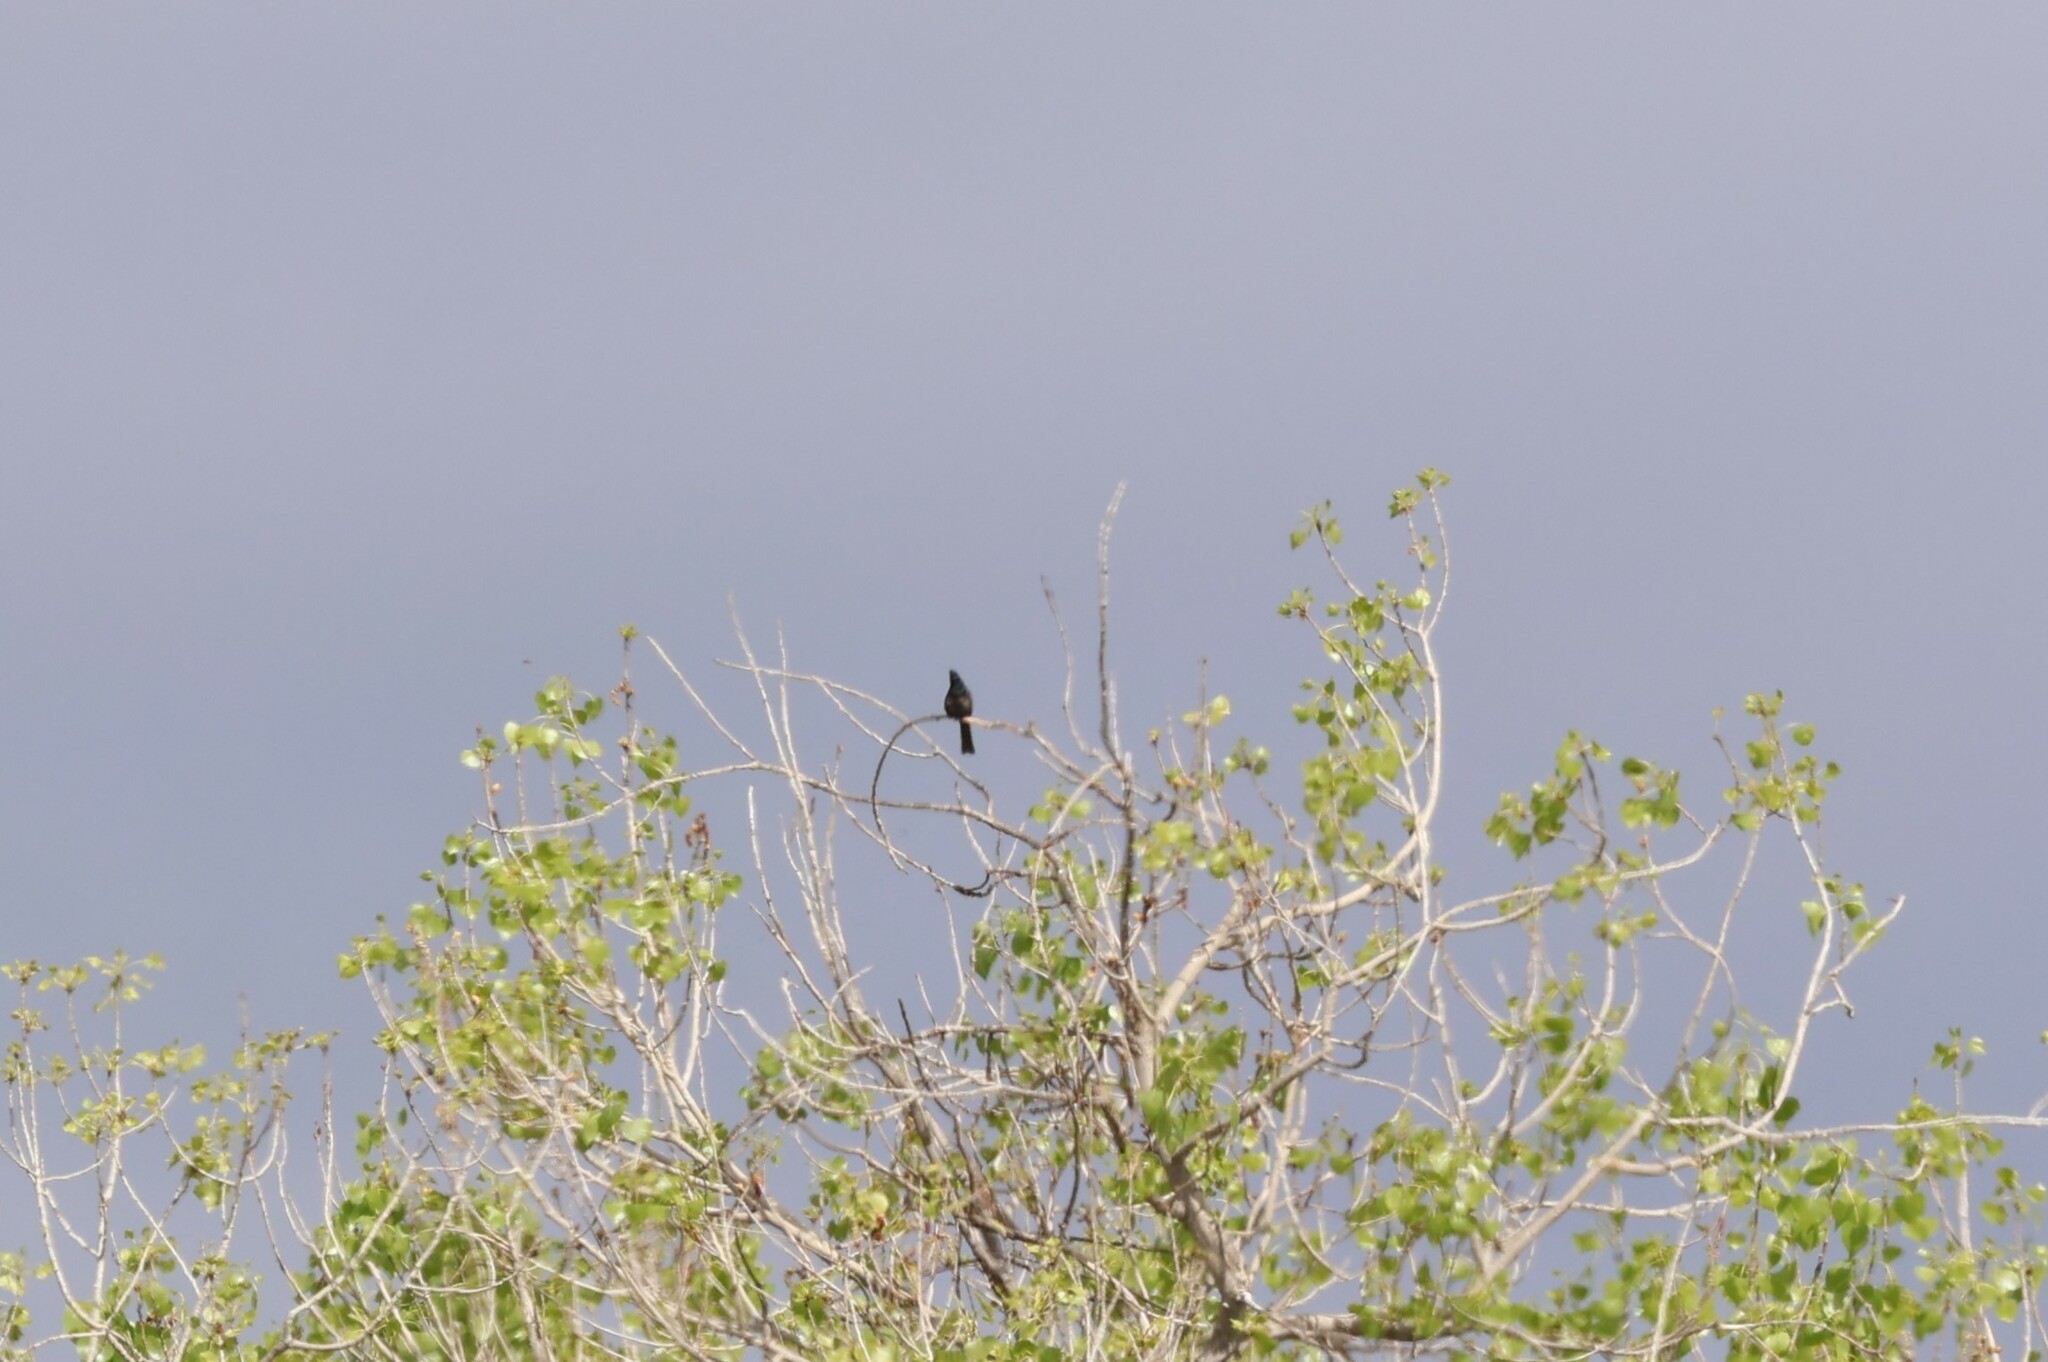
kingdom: Animalia
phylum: Chordata
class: Aves
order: Passeriformes
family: Ptilogonatidae
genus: Phainopepla
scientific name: Phainopepla nitens
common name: Phainopepla
